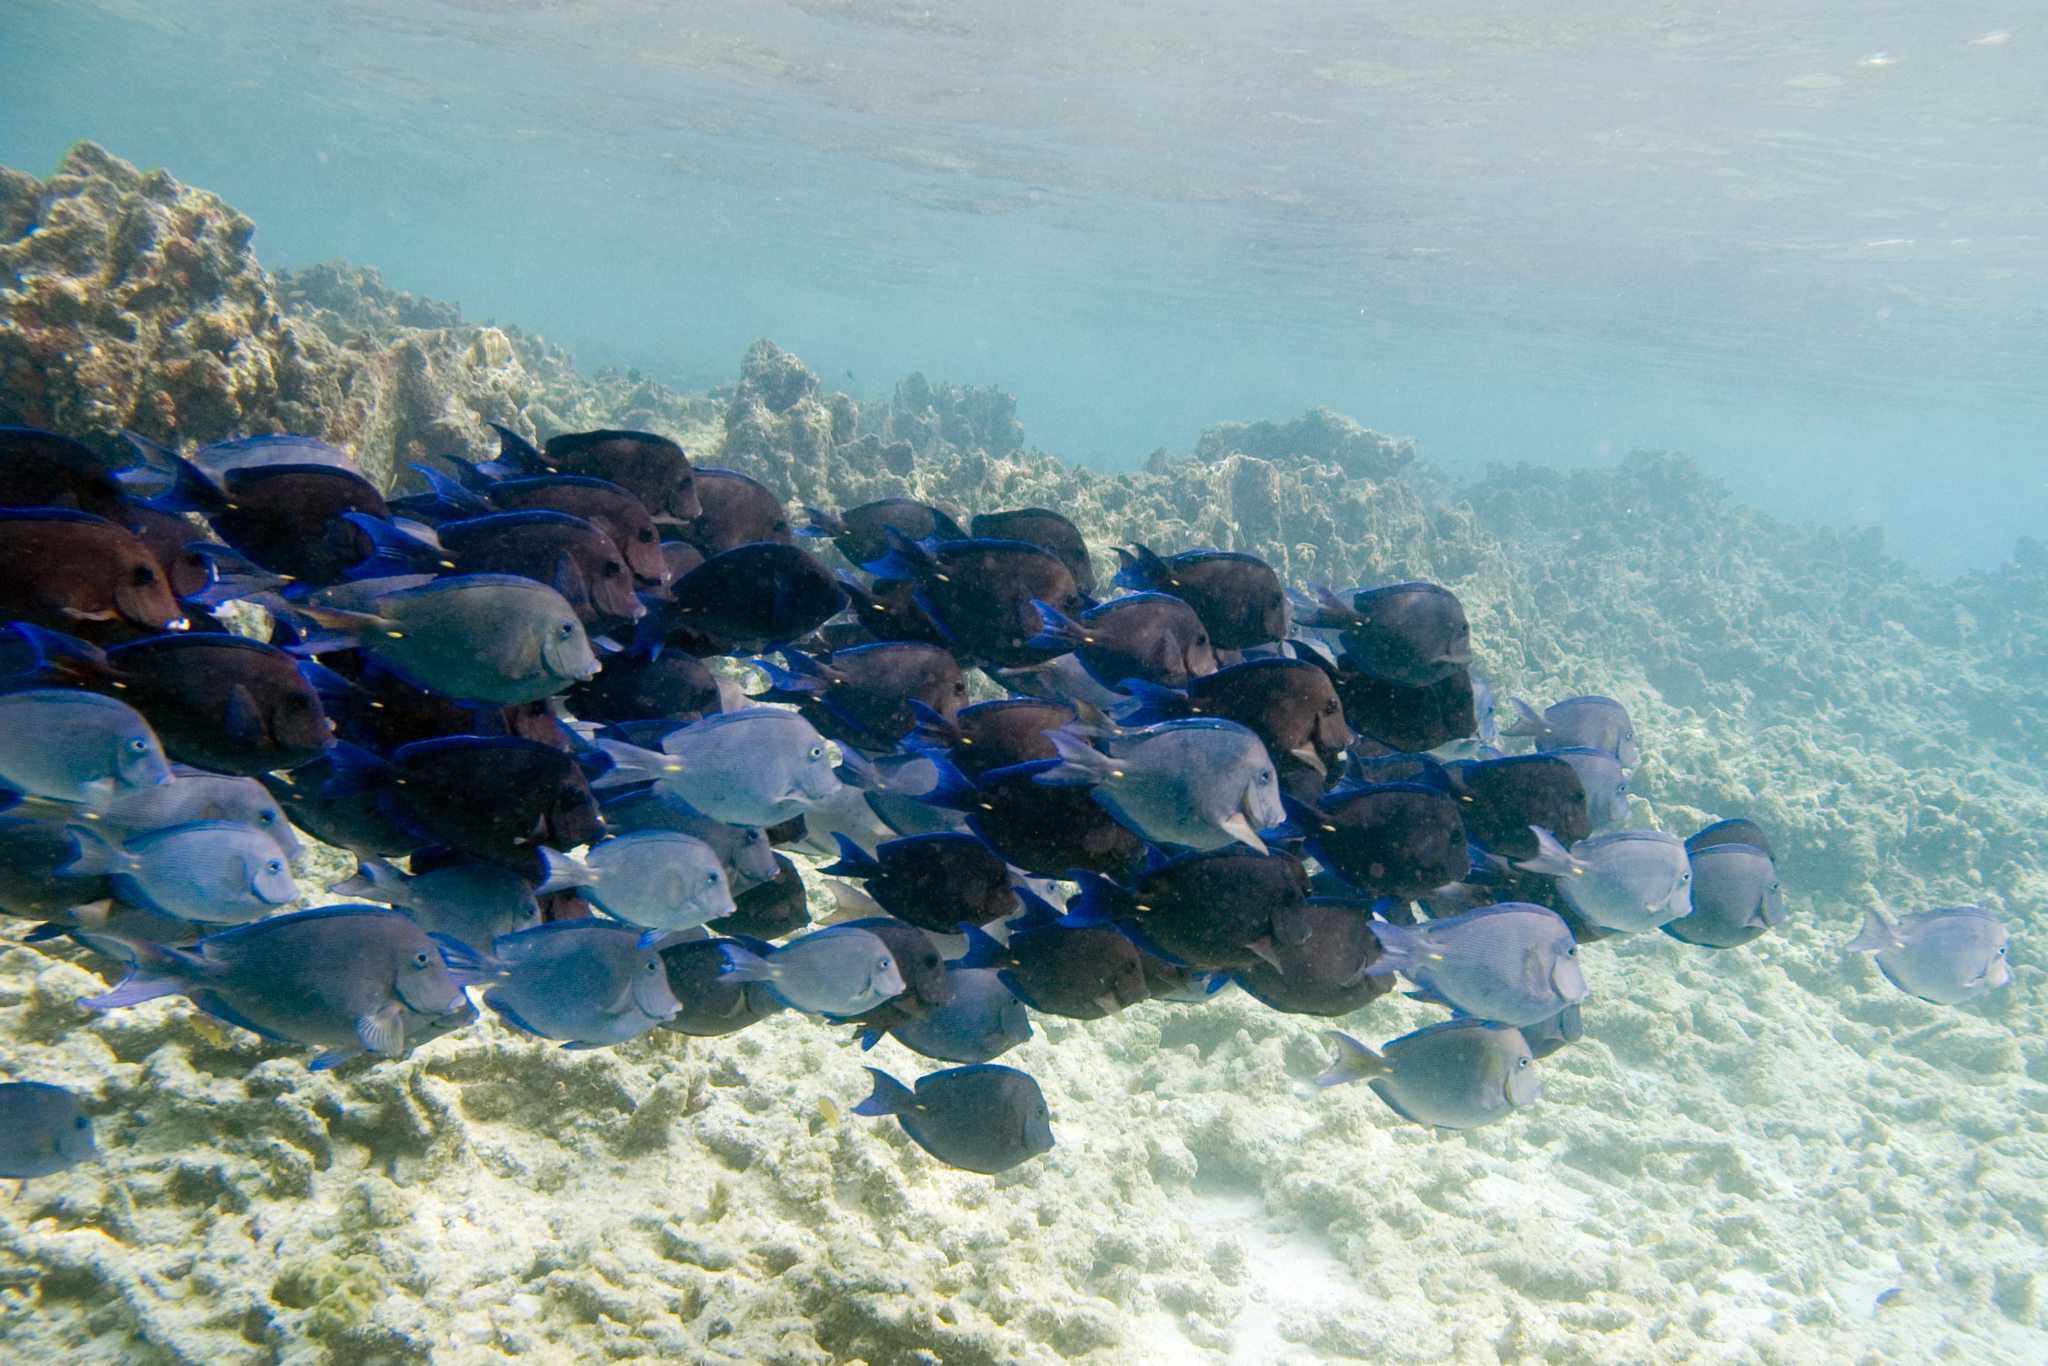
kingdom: Animalia
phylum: Chordata
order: Perciformes
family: Acanthuridae
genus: Acanthurus
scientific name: Acanthurus coeruleus
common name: Blue tang
